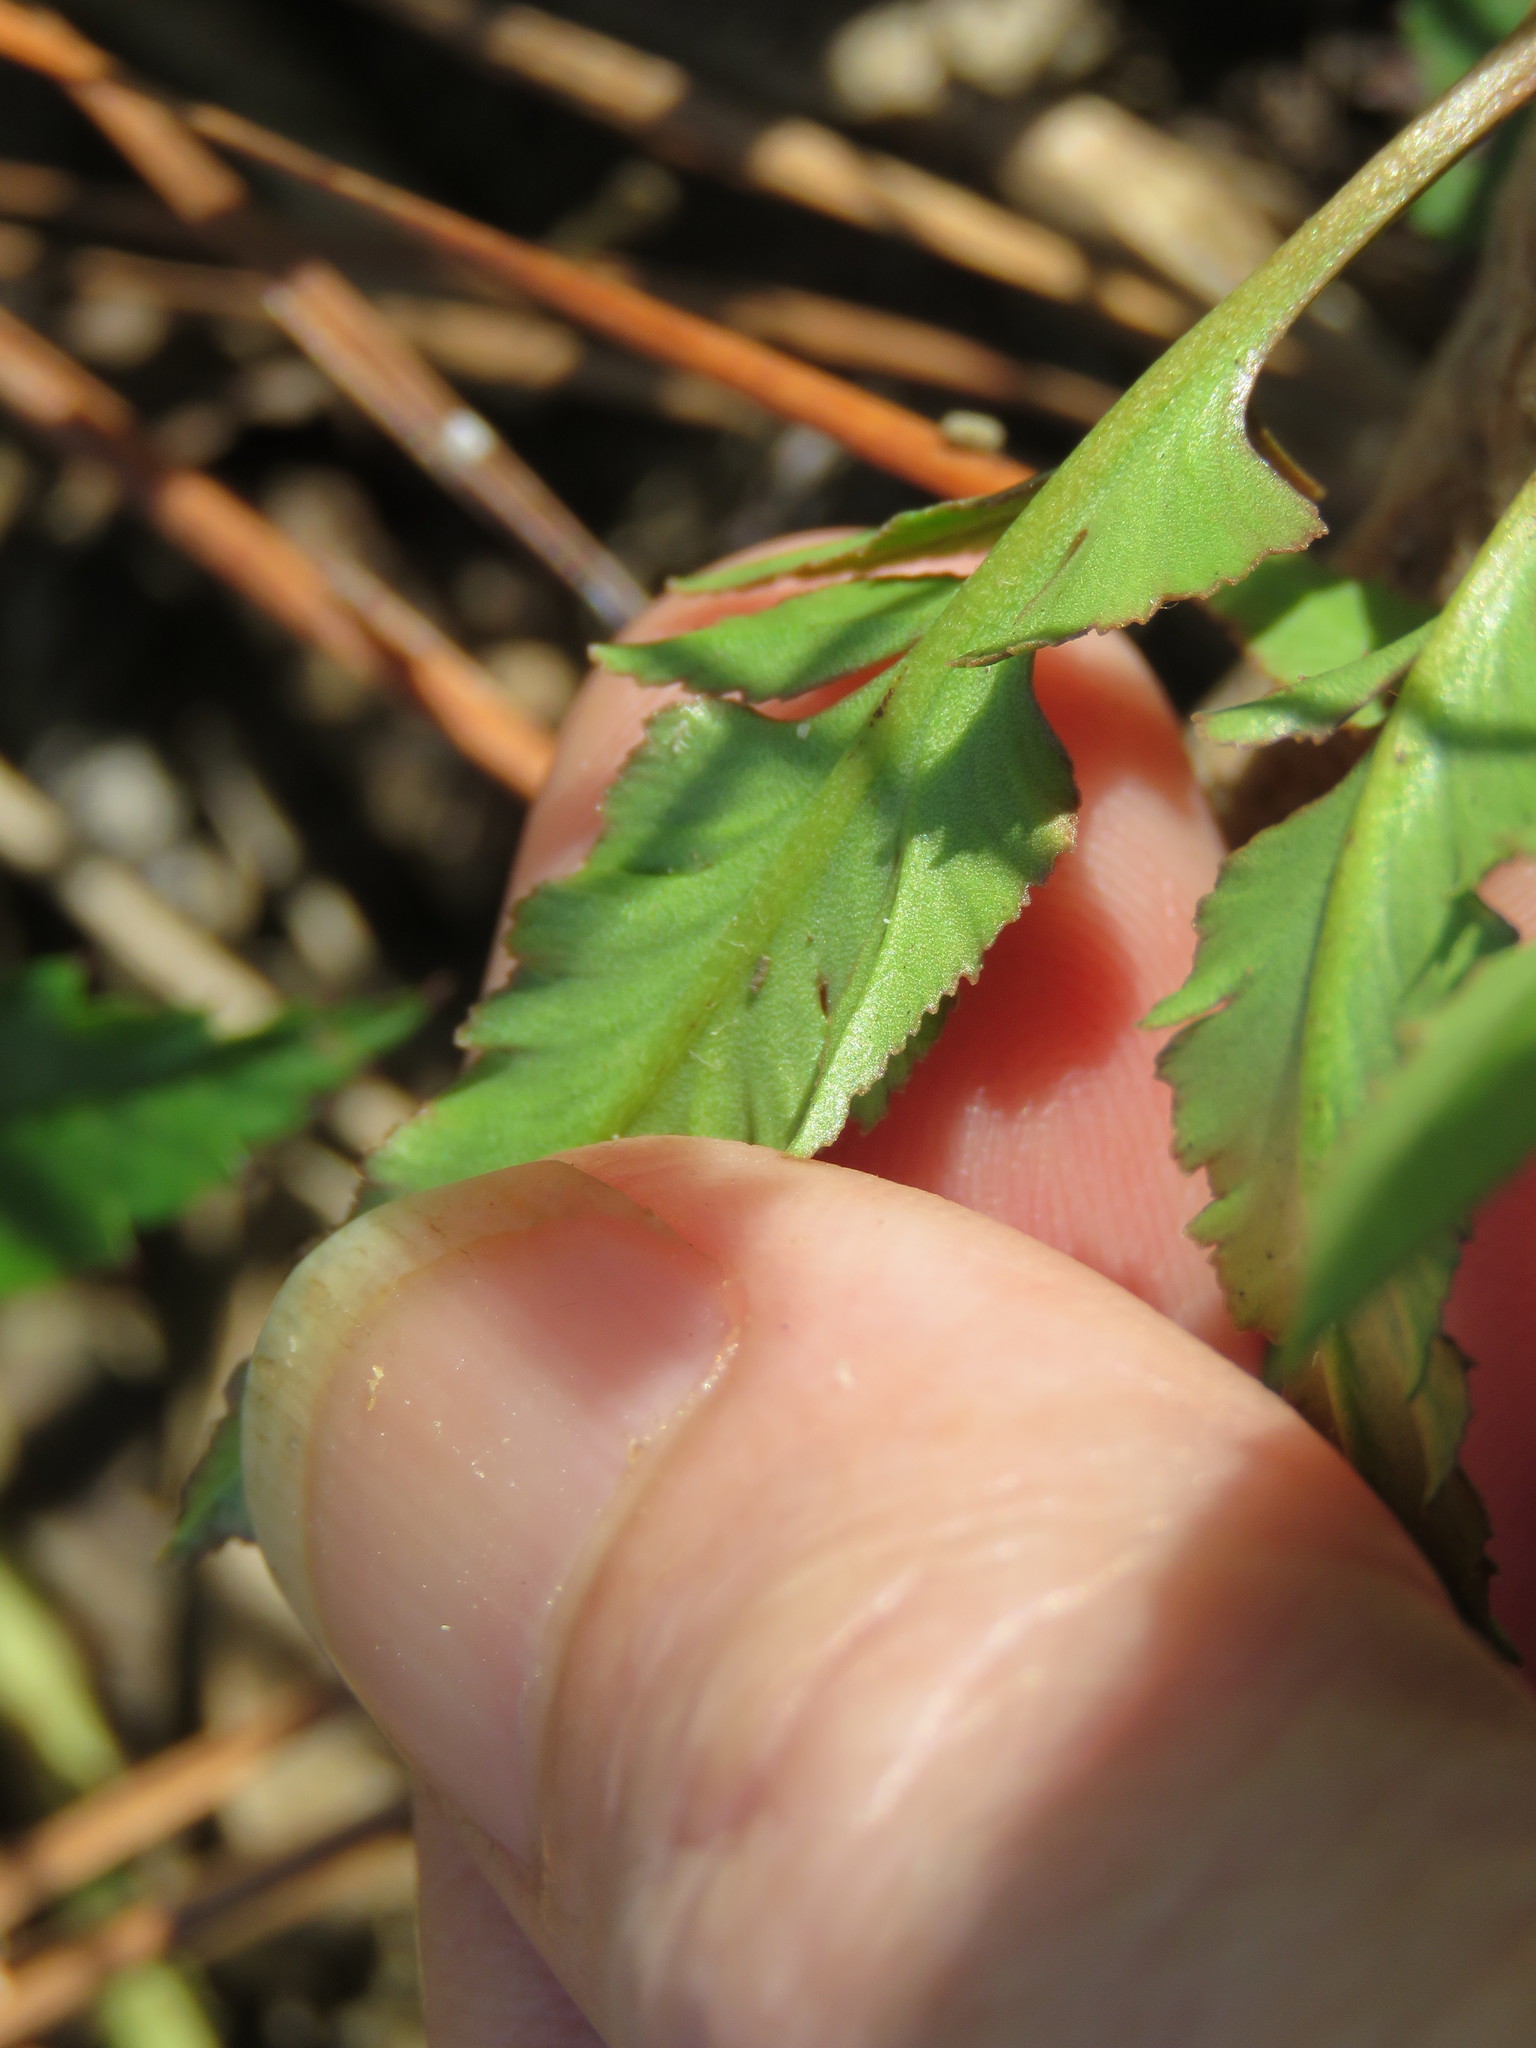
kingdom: Plantae
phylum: Tracheophyta
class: Polypodiopsida
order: Ophioglossales
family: Ophioglossaceae
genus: Sceptridium
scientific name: Sceptridium biternatum
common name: Sparse-lobed grapefern
